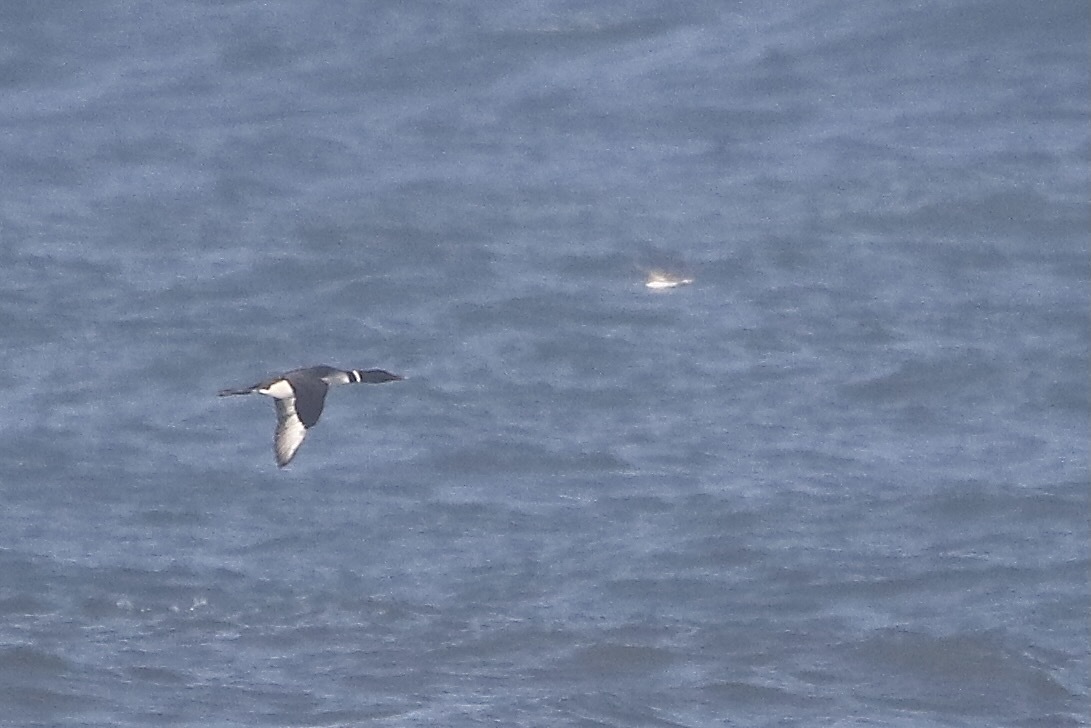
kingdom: Animalia
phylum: Chordata
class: Aves
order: Gaviiformes
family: Gaviidae
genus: Gavia
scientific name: Gavia immer
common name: Common loon
